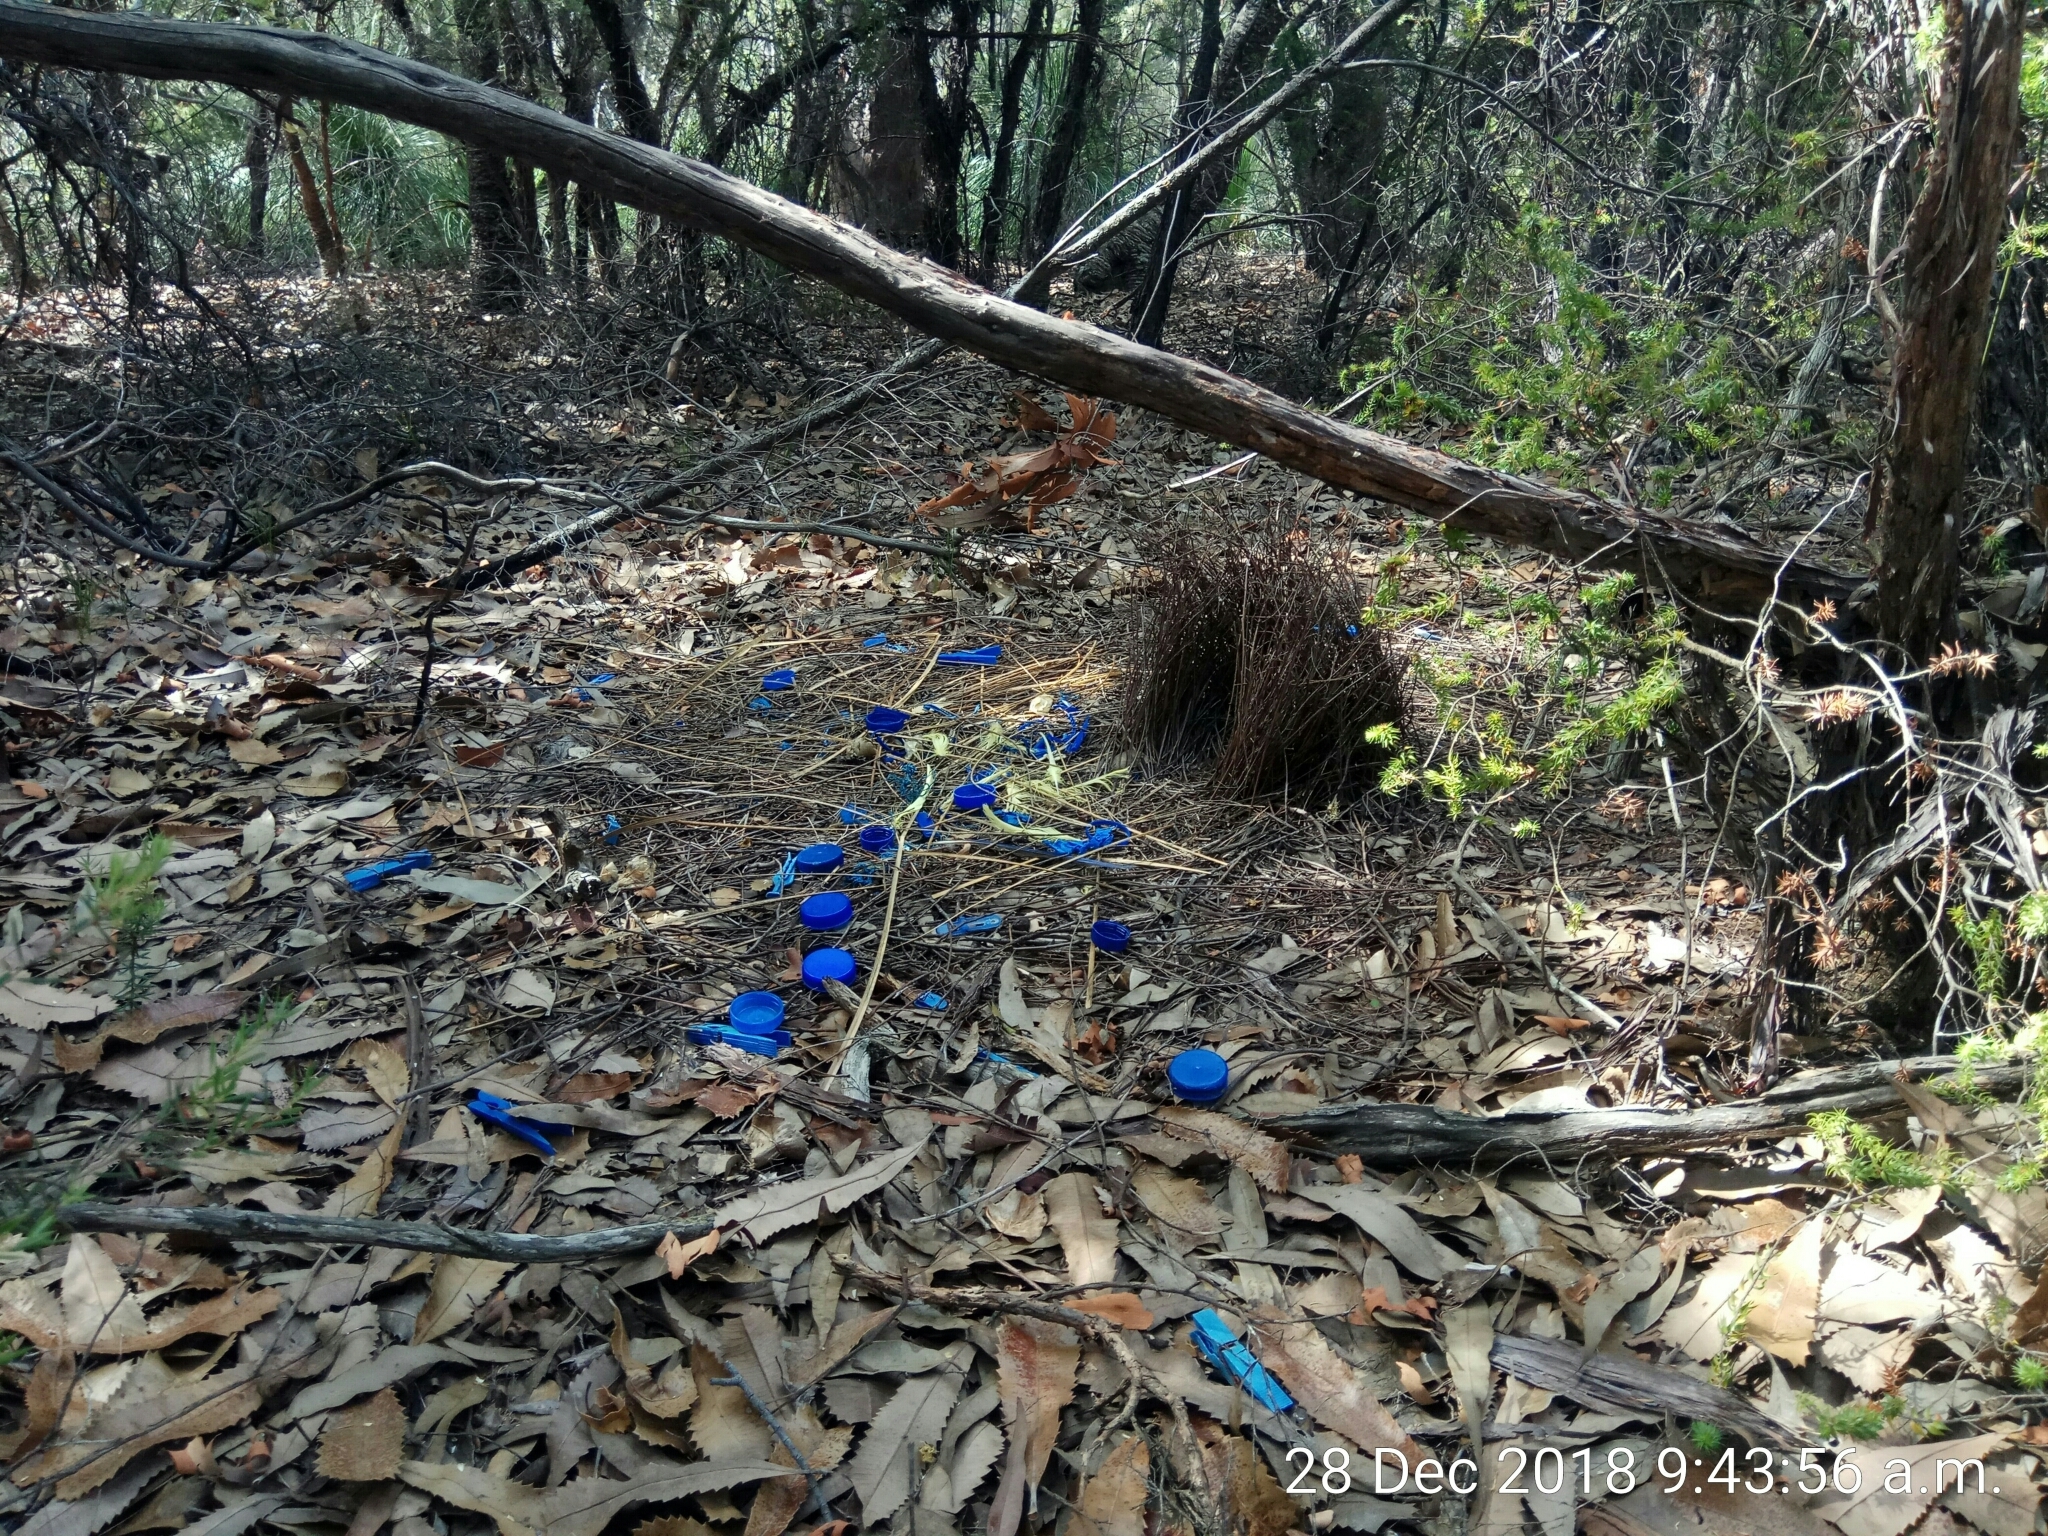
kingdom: Animalia
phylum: Chordata
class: Aves
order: Passeriformes
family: Ptilonorhynchidae
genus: Ptilonorhynchus
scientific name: Ptilonorhynchus violaceus
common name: Satin bowerbird
